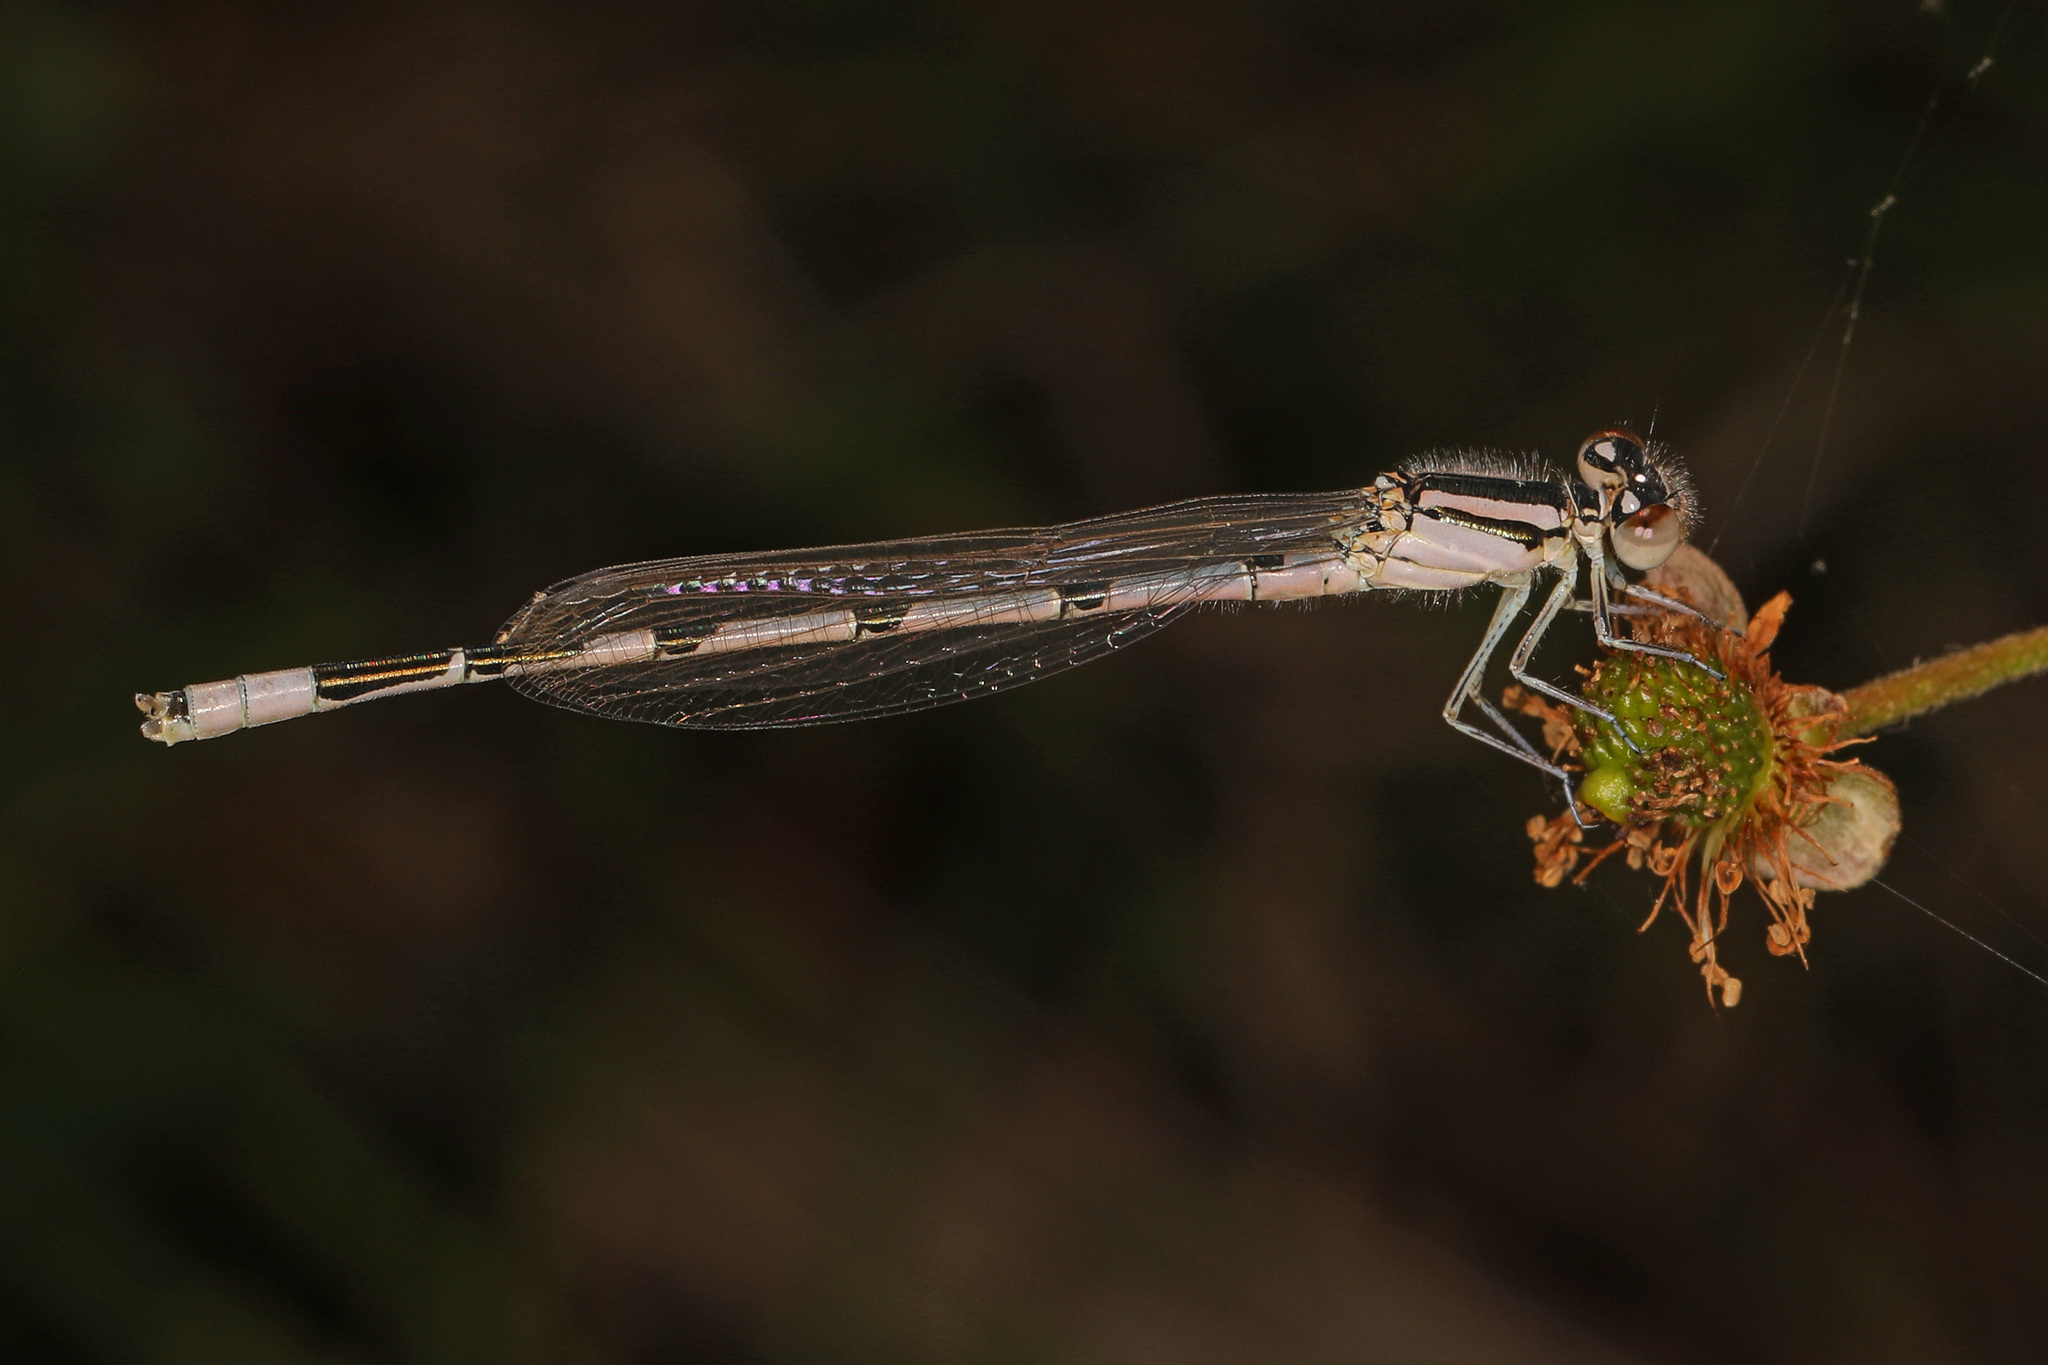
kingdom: Animalia
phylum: Arthropoda
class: Insecta
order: Odonata
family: Coenagrionidae
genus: Enallagma
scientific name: Enallagma civile
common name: Damselfly
